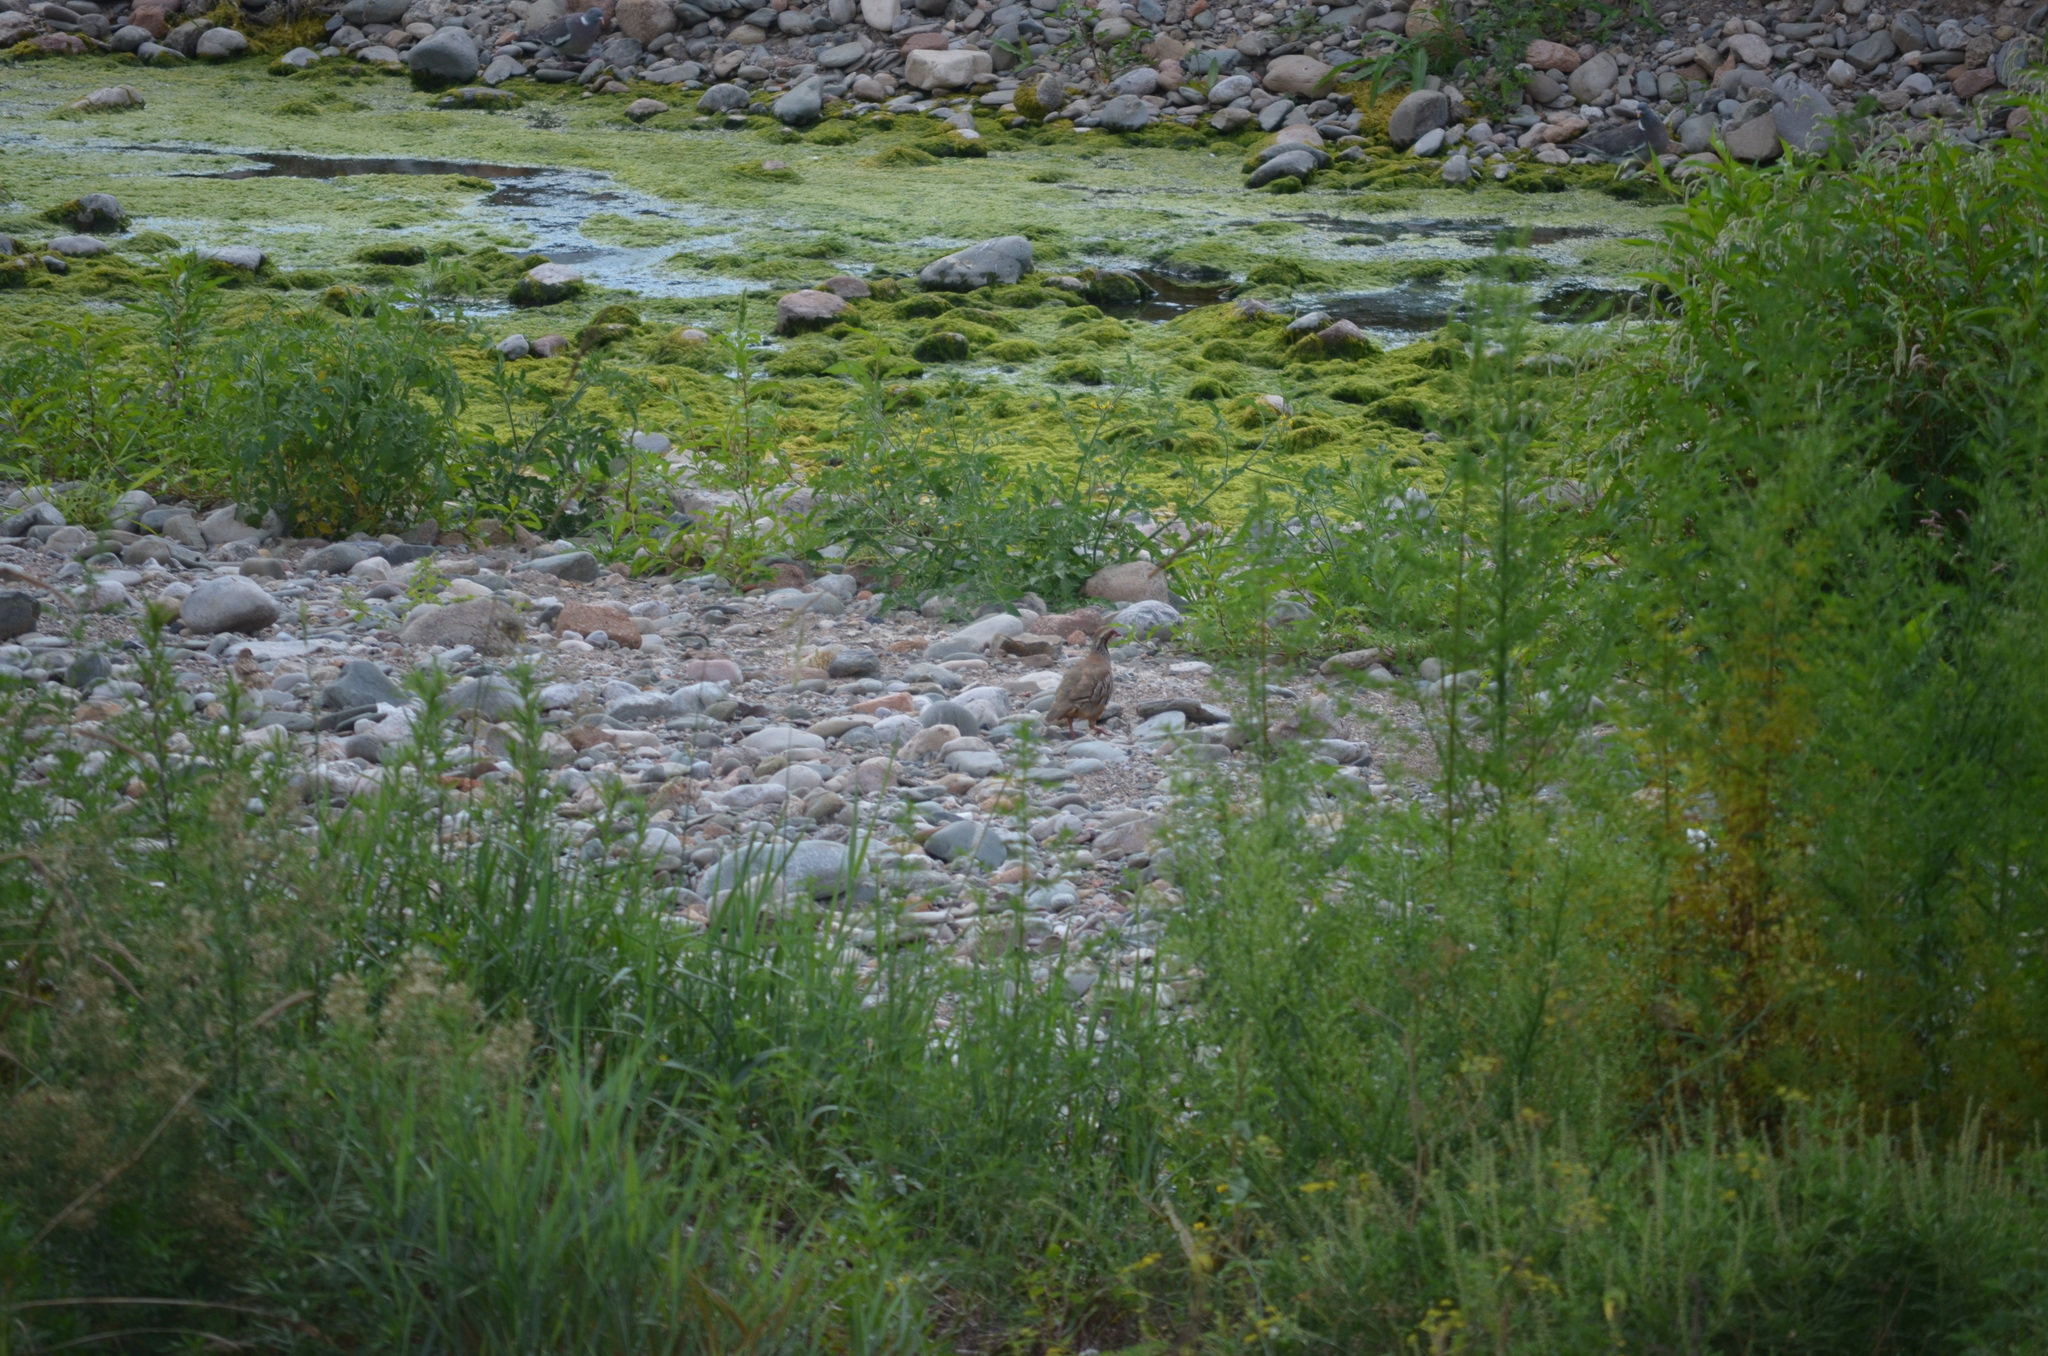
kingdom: Animalia
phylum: Chordata
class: Aves
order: Galliformes
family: Phasianidae
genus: Alectoris
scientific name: Alectoris rufa
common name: Red-legged partridge
